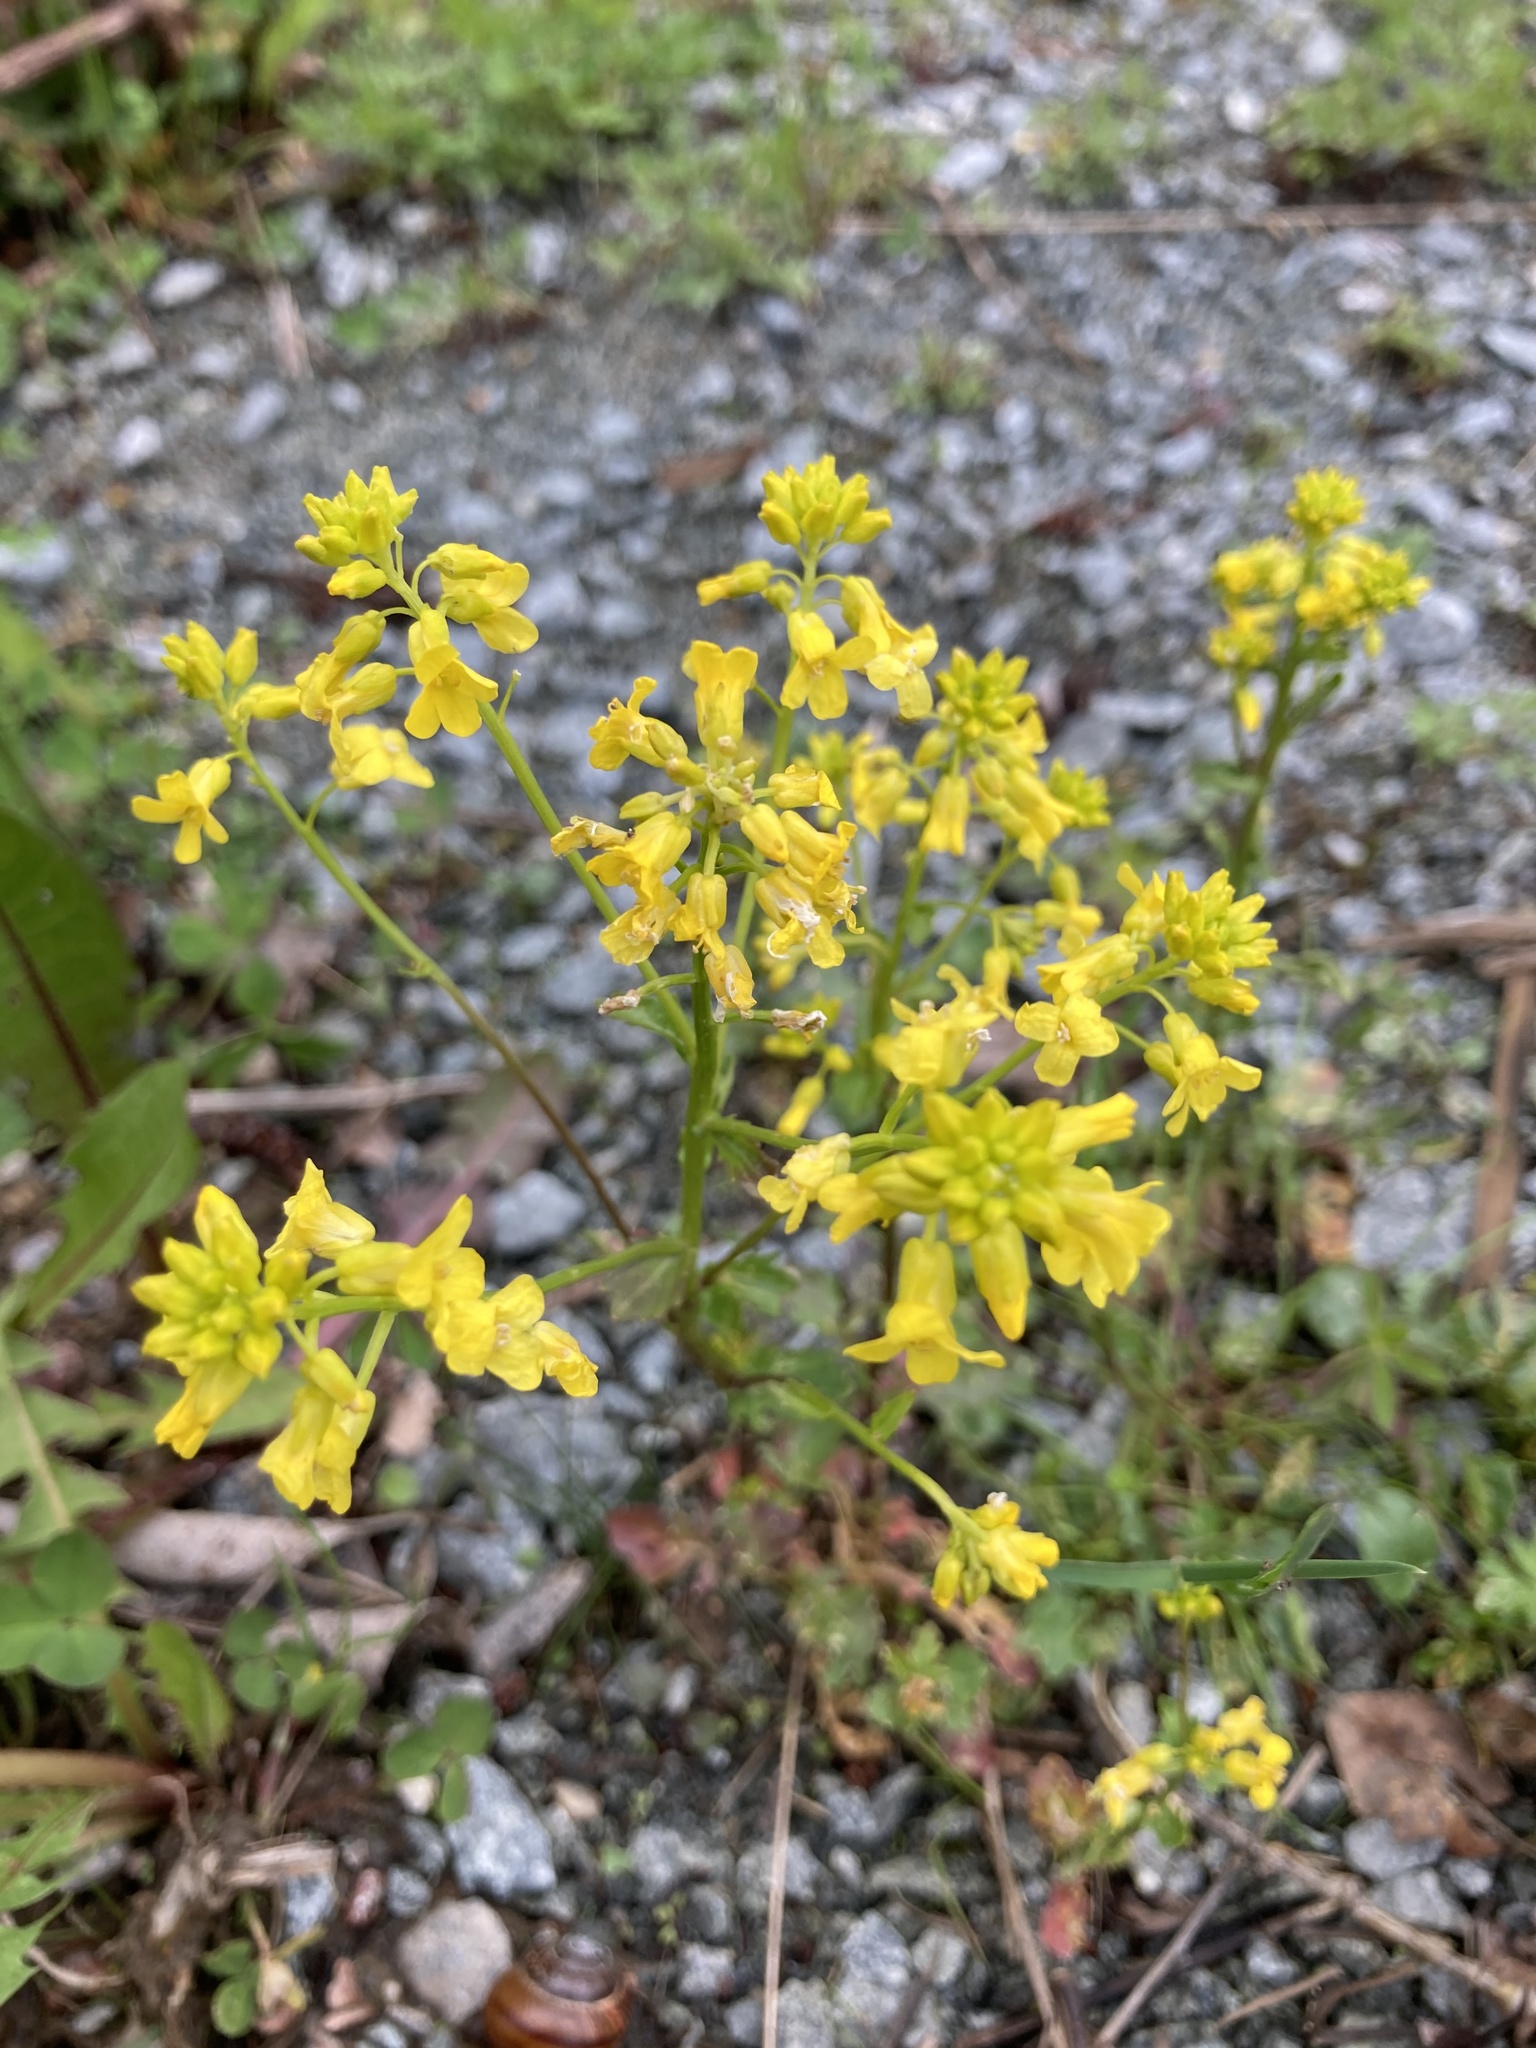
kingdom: Plantae
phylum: Tracheophyta
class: Magnoliopsida
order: Brassicales
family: Brassicaceae
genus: Barbarea
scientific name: Barbarea vulgaris
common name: Cressy-greens
